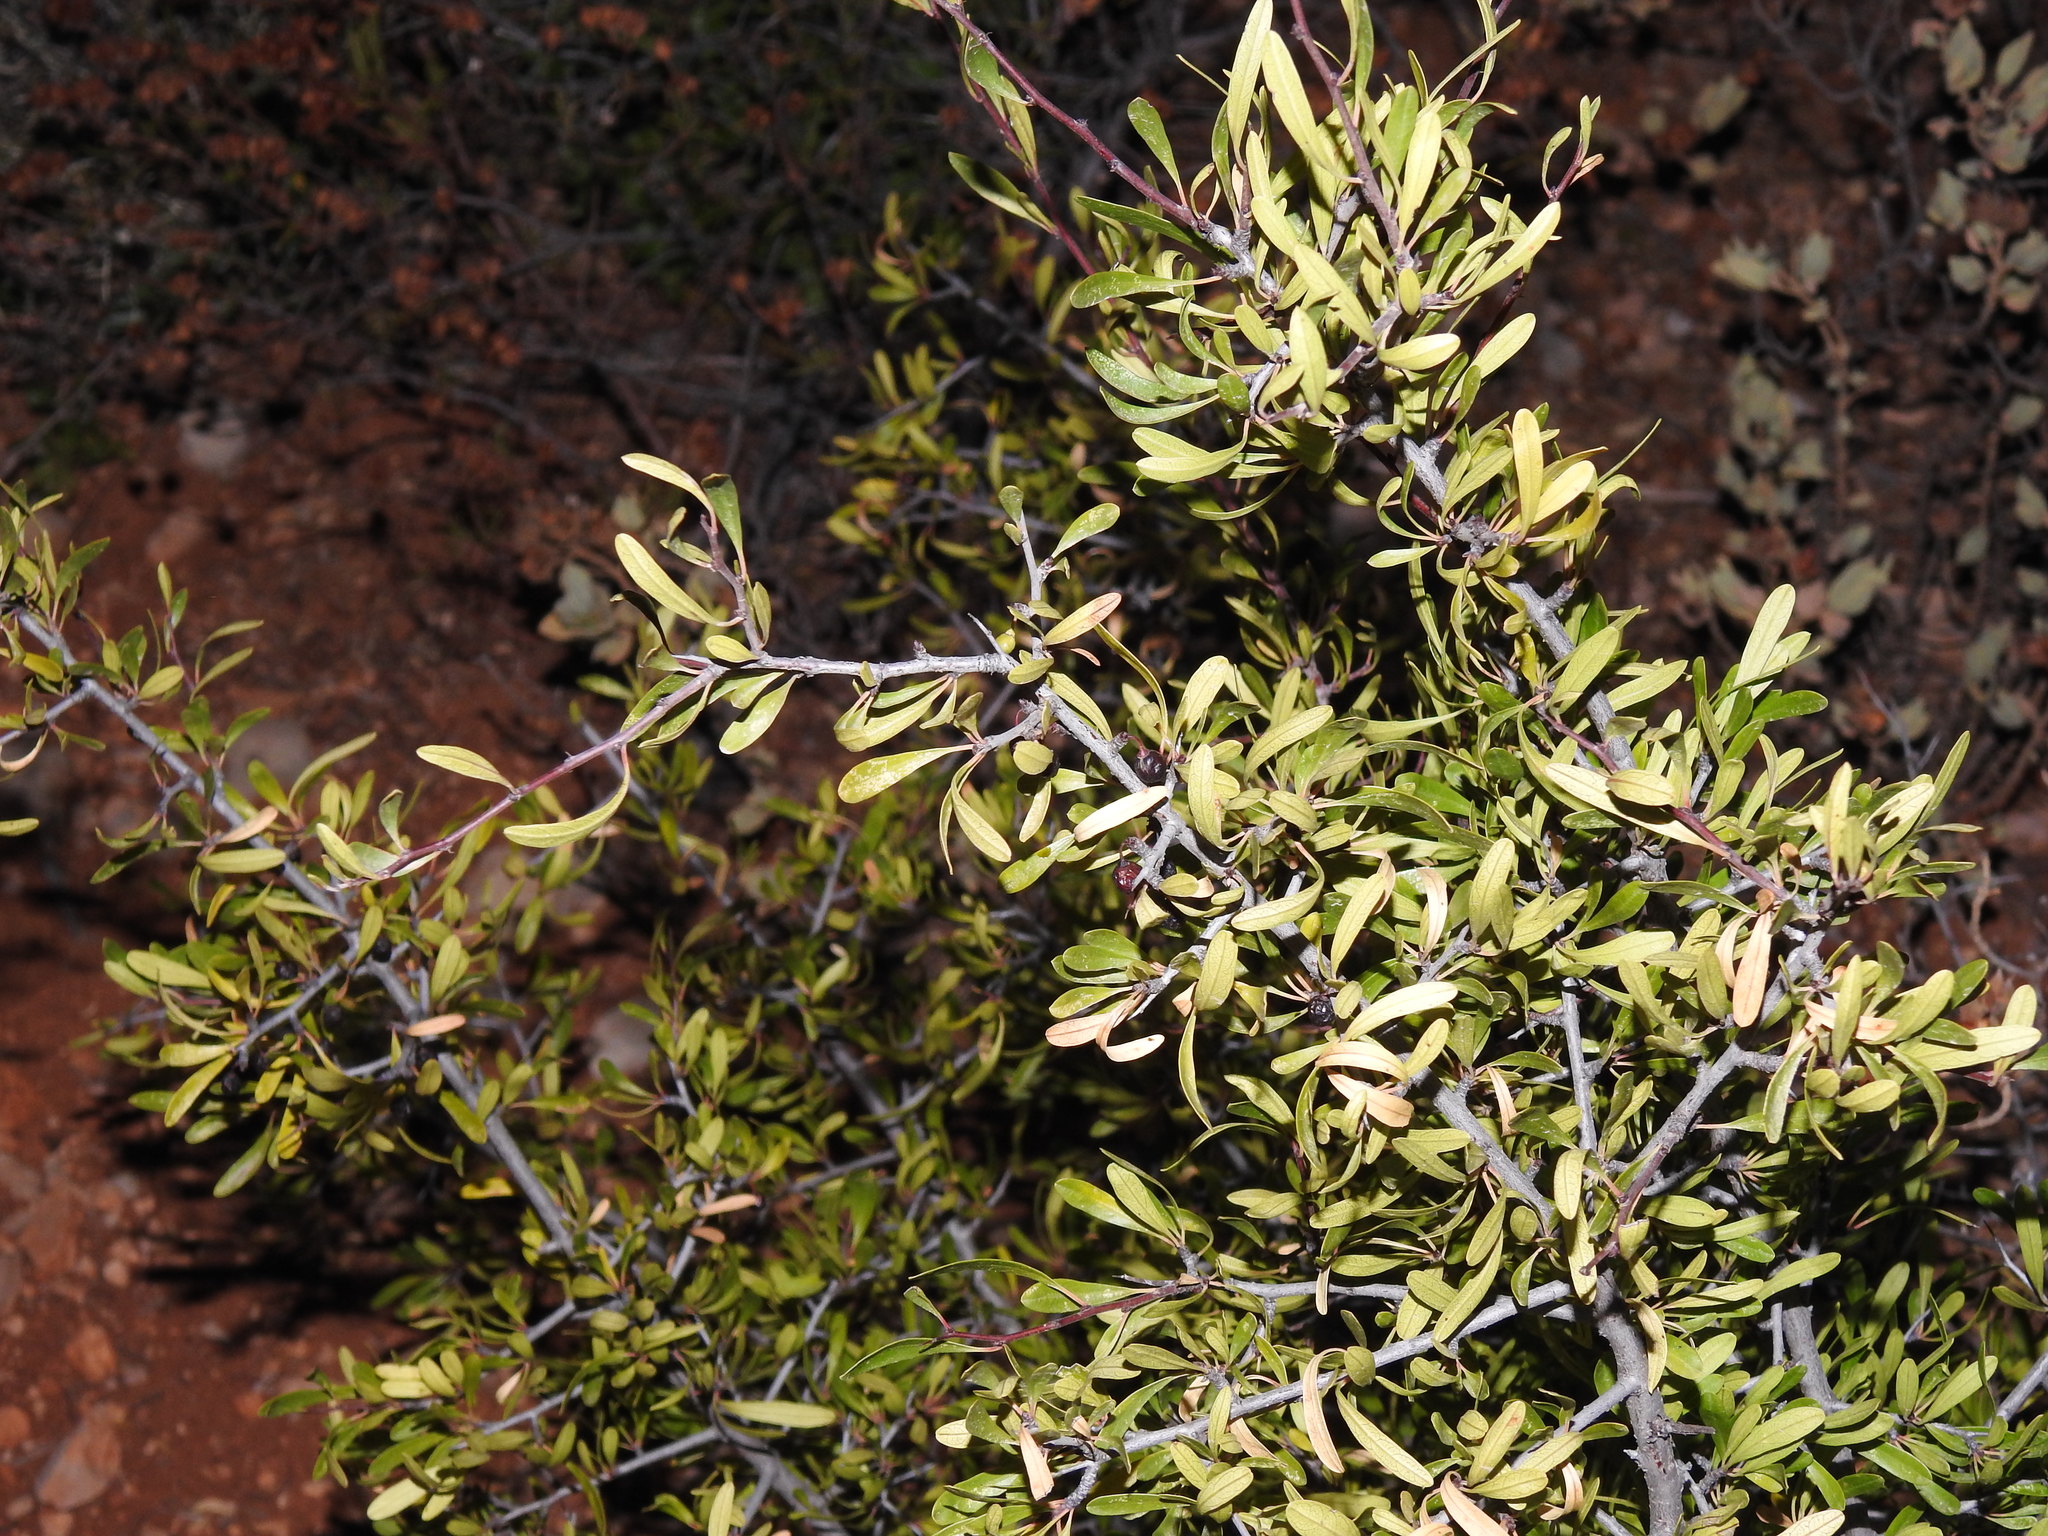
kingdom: Plantae
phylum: Tracheophyta
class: Magnoliopsida
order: Rosales
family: Rhamnaceae
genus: Rhamnus
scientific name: Rhamnus oleoides
